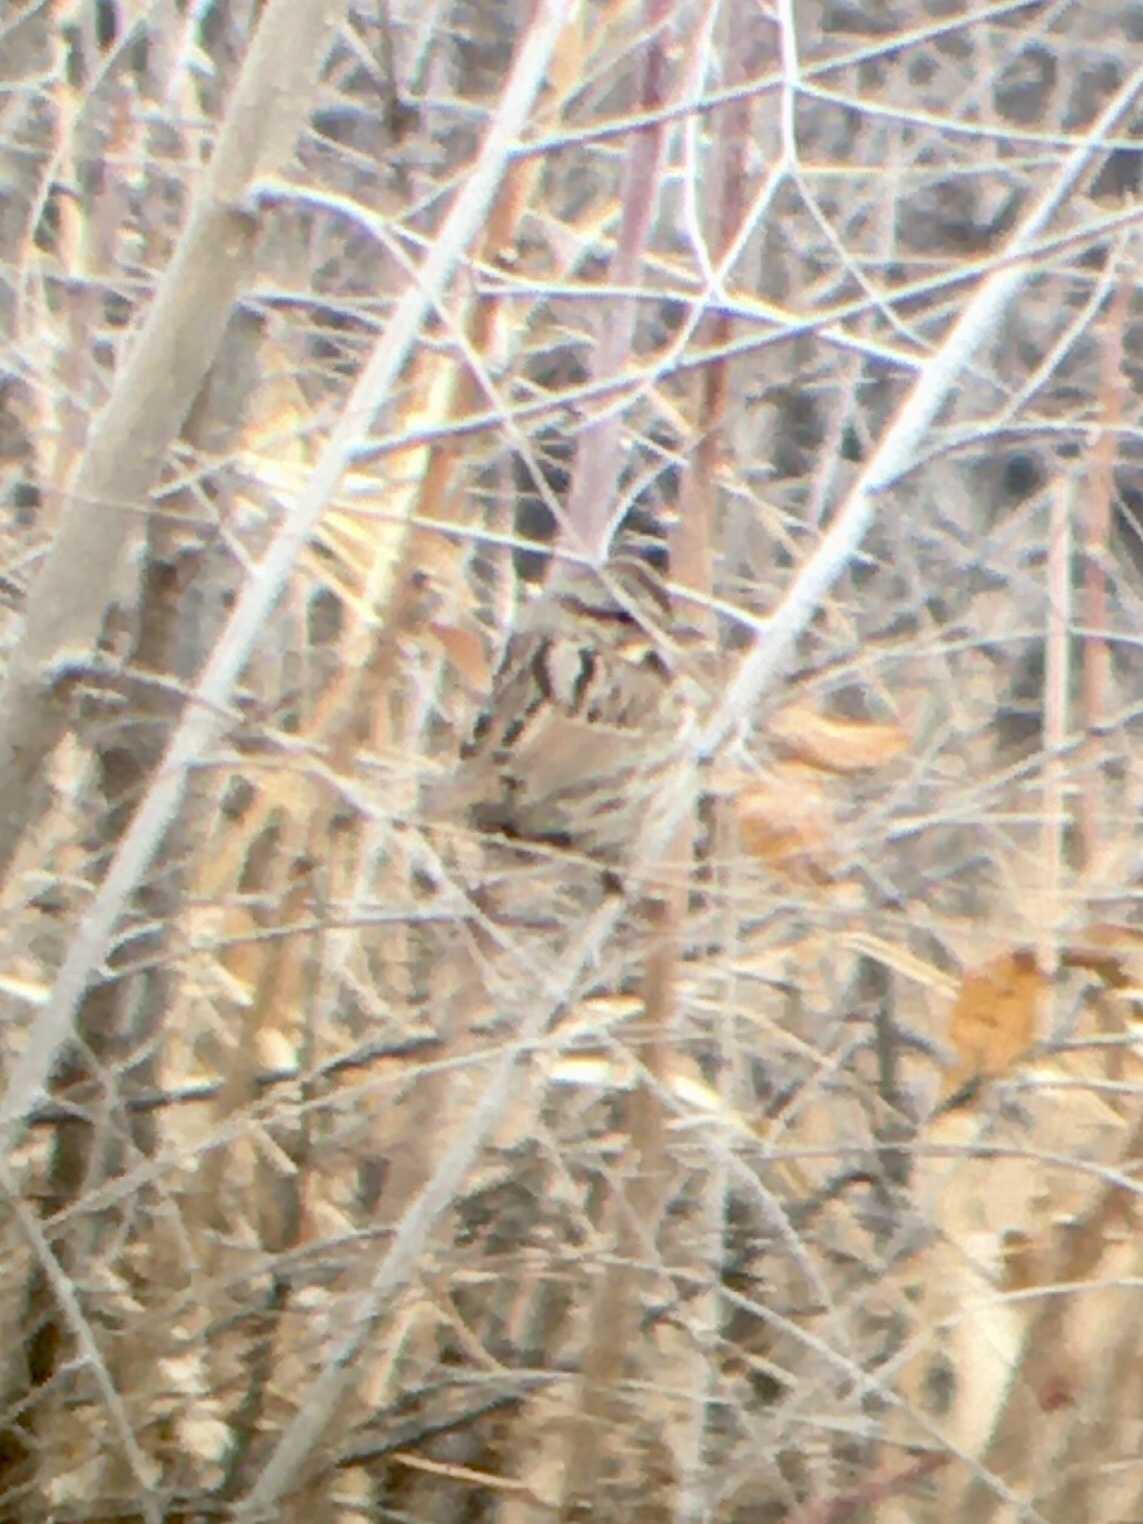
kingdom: Animalia
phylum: Chordata
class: Aves
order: Passeriformes
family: Passerellidae
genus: Melospiza
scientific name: Melospiza melodia
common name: Song sparrow
